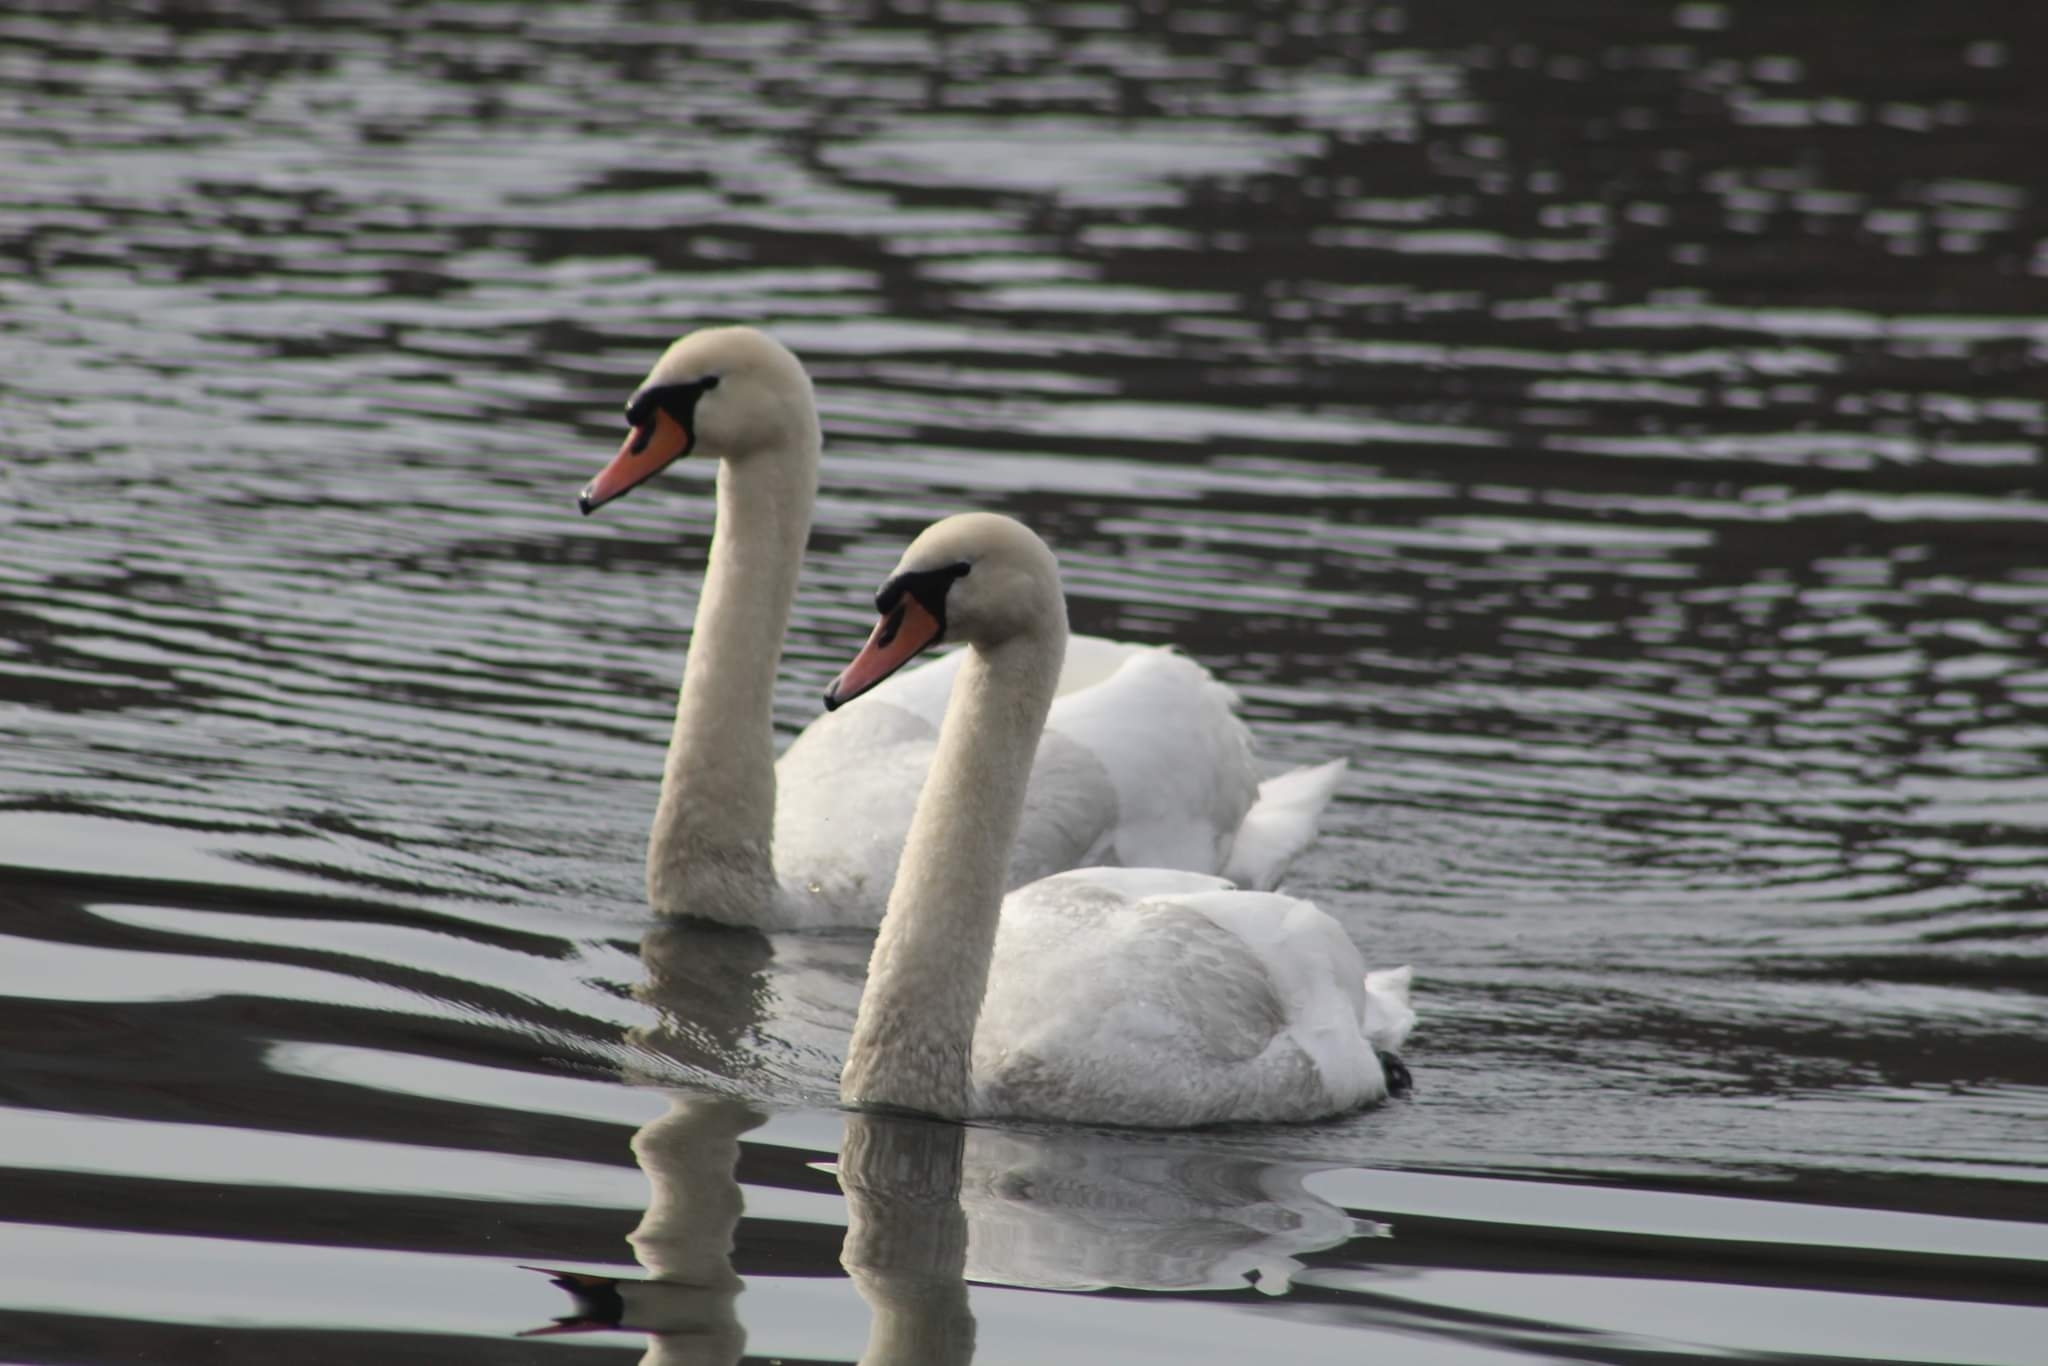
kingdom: Animalia
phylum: Chordata
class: Aves
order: Anseriformes
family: Anatidae
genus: Cygnus
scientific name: Cygnus olor
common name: Mute swan
